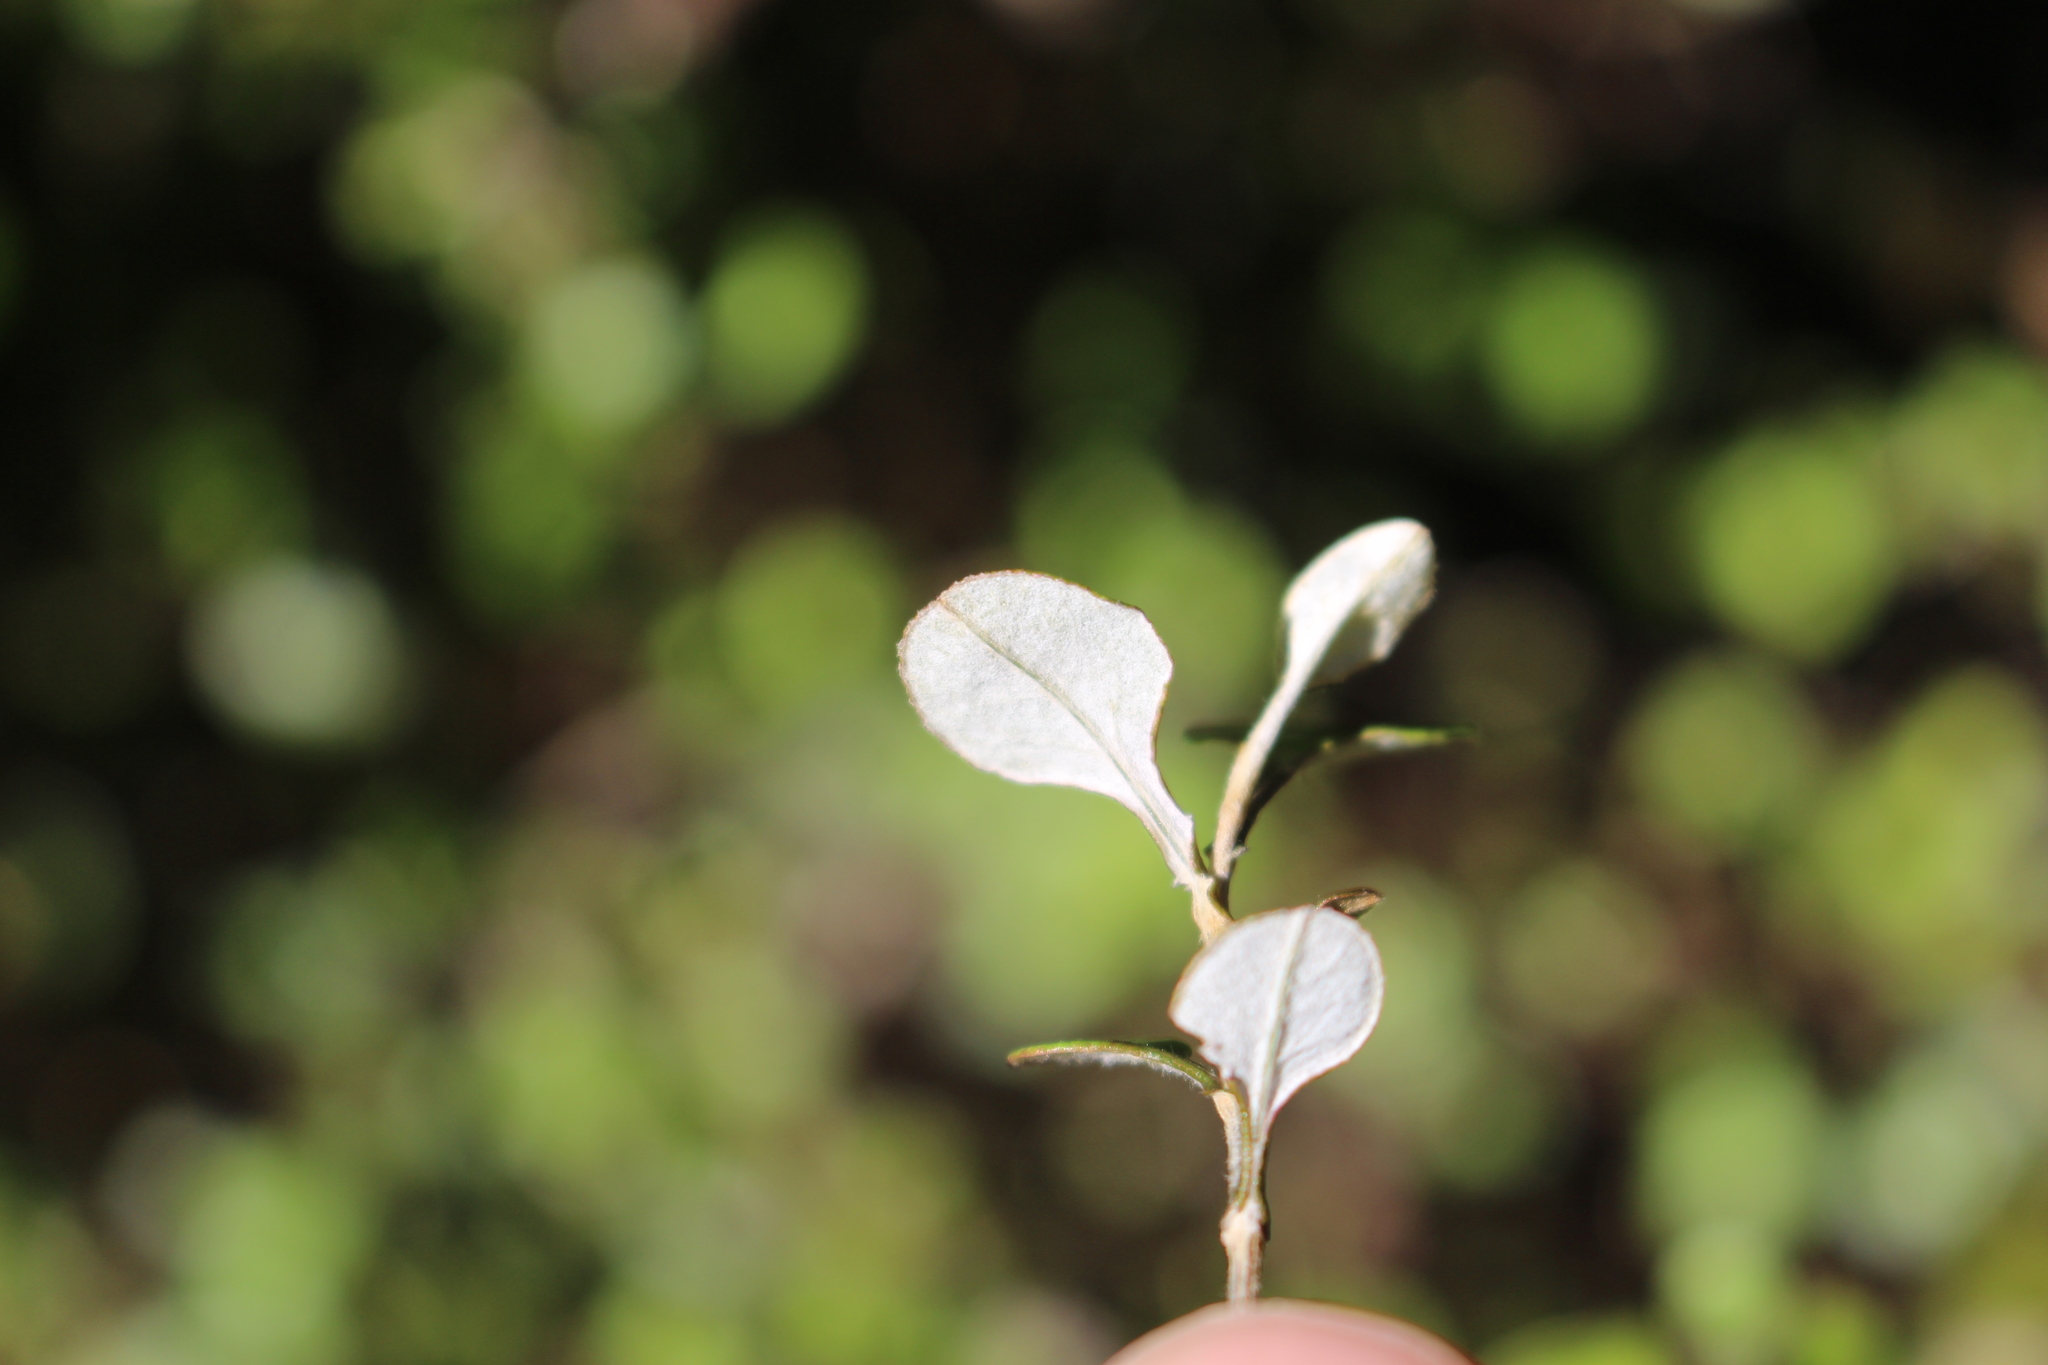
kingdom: Plantae
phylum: Tracheophyta
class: Magnoliopsida
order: Asterales
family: Asteraceae
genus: Ozothamnus
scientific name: Ozothamnus glomeratus
